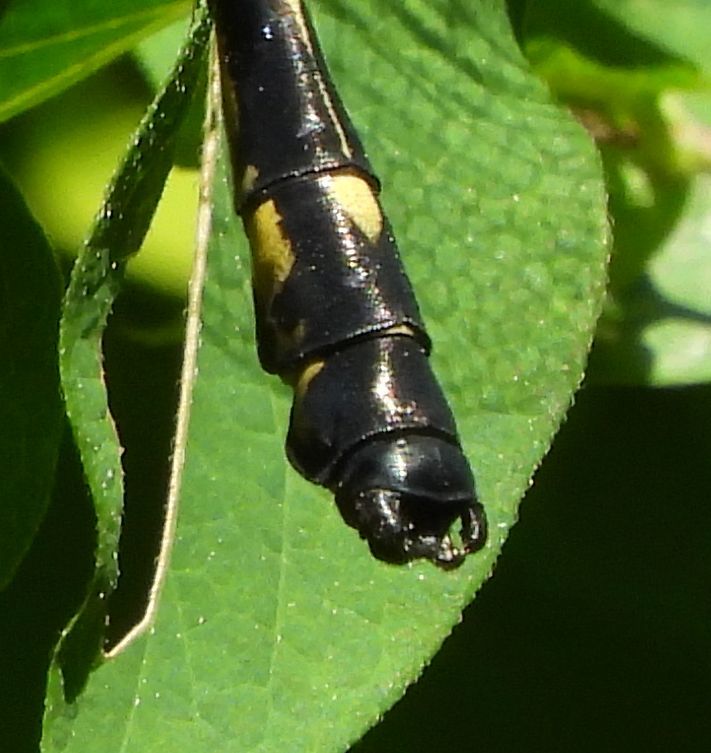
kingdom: Animalia
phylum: Arthropoda
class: Insecta
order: Odonata
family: Gomphidae
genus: Hagenius
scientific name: Hagenius brevistylus
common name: Dragonhunter
